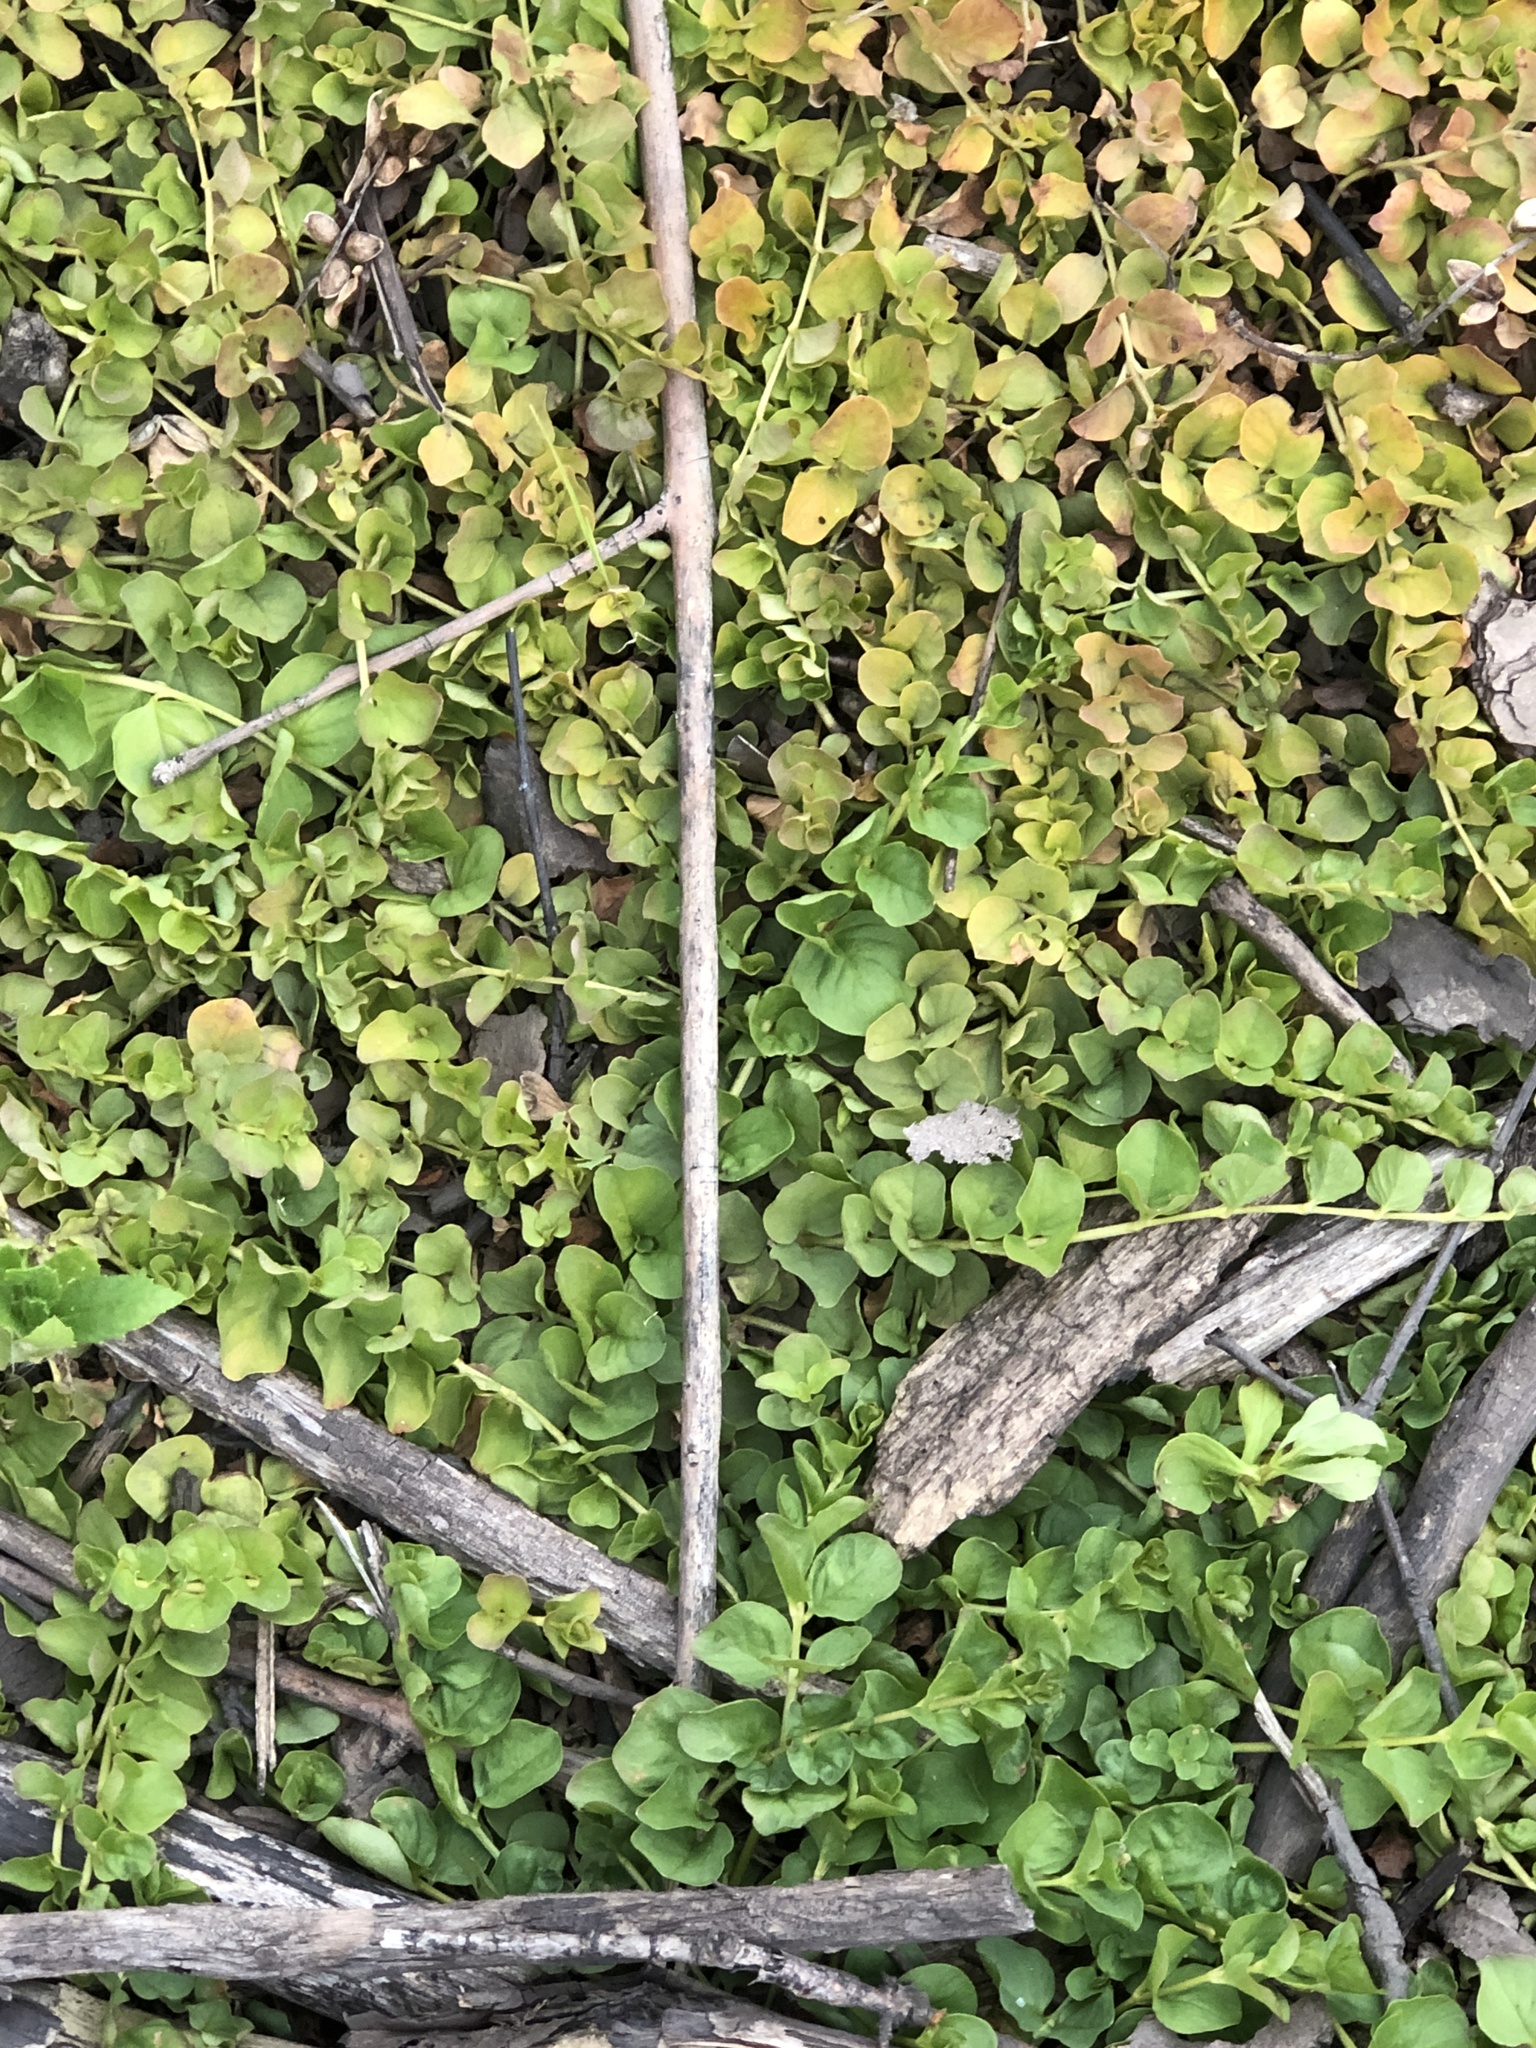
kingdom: Plantae
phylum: Tracheophyta
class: Magnoliopsida
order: Ericales
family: Primulaceae
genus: Lysimachia
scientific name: Lysimachia nummularia
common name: Moneywort
